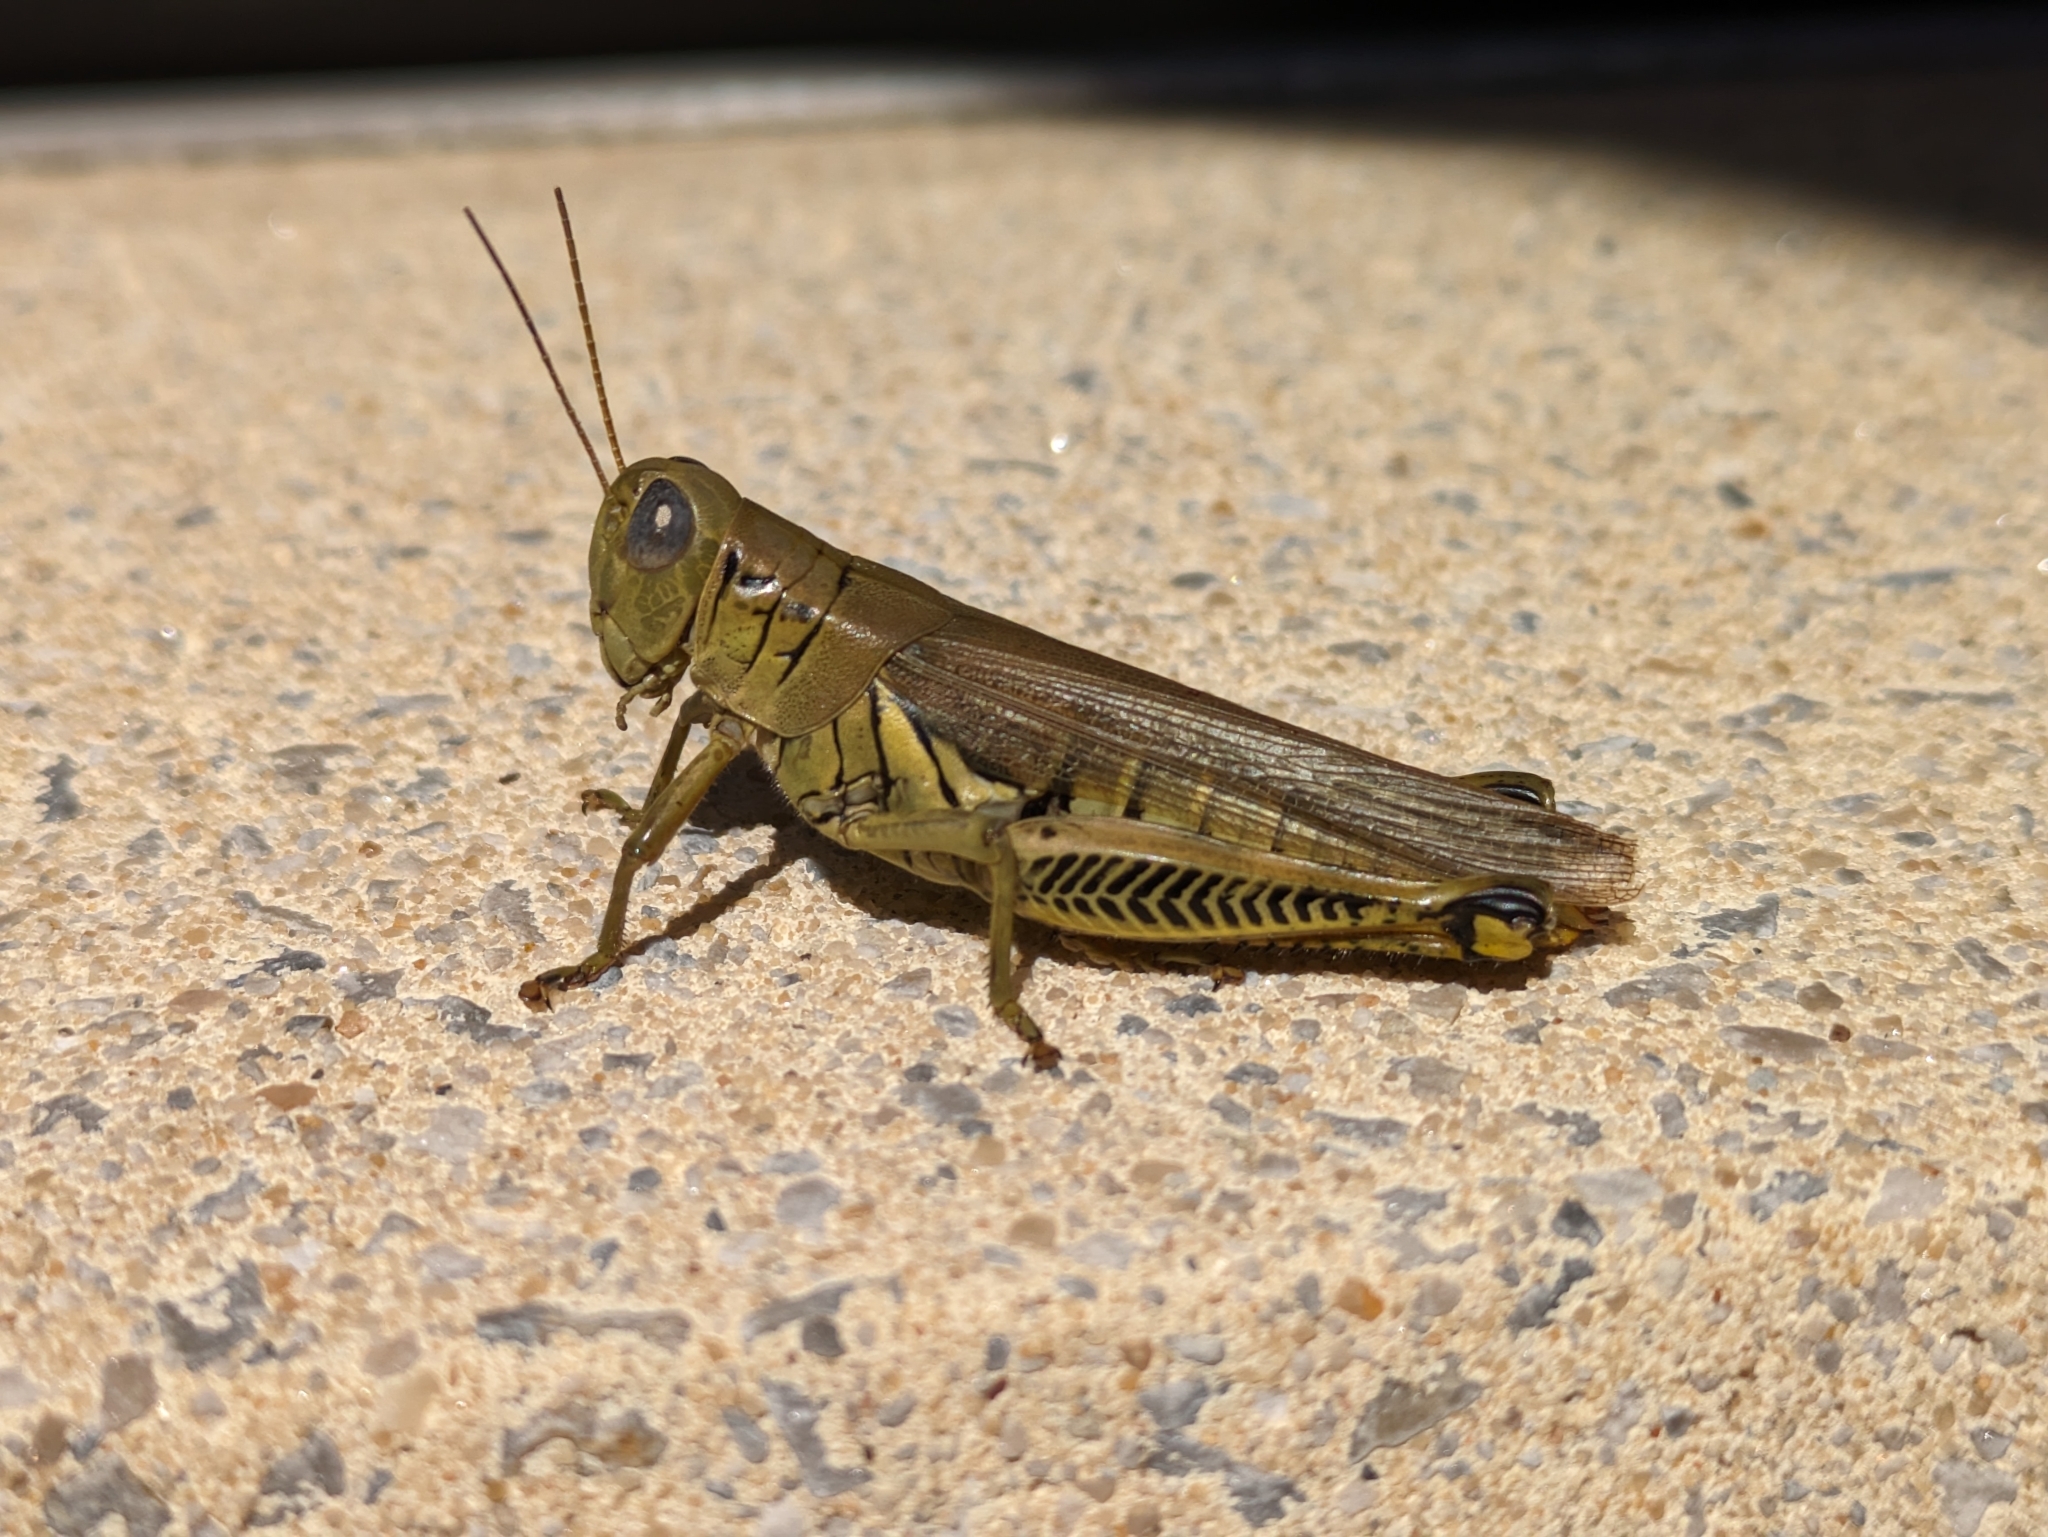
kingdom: Animalia
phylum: Arthropoda
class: Insecta
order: Orthoptera
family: Acrididae
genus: Melanoplus
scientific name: Melanoplus differentialis
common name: Differential grasshopper
